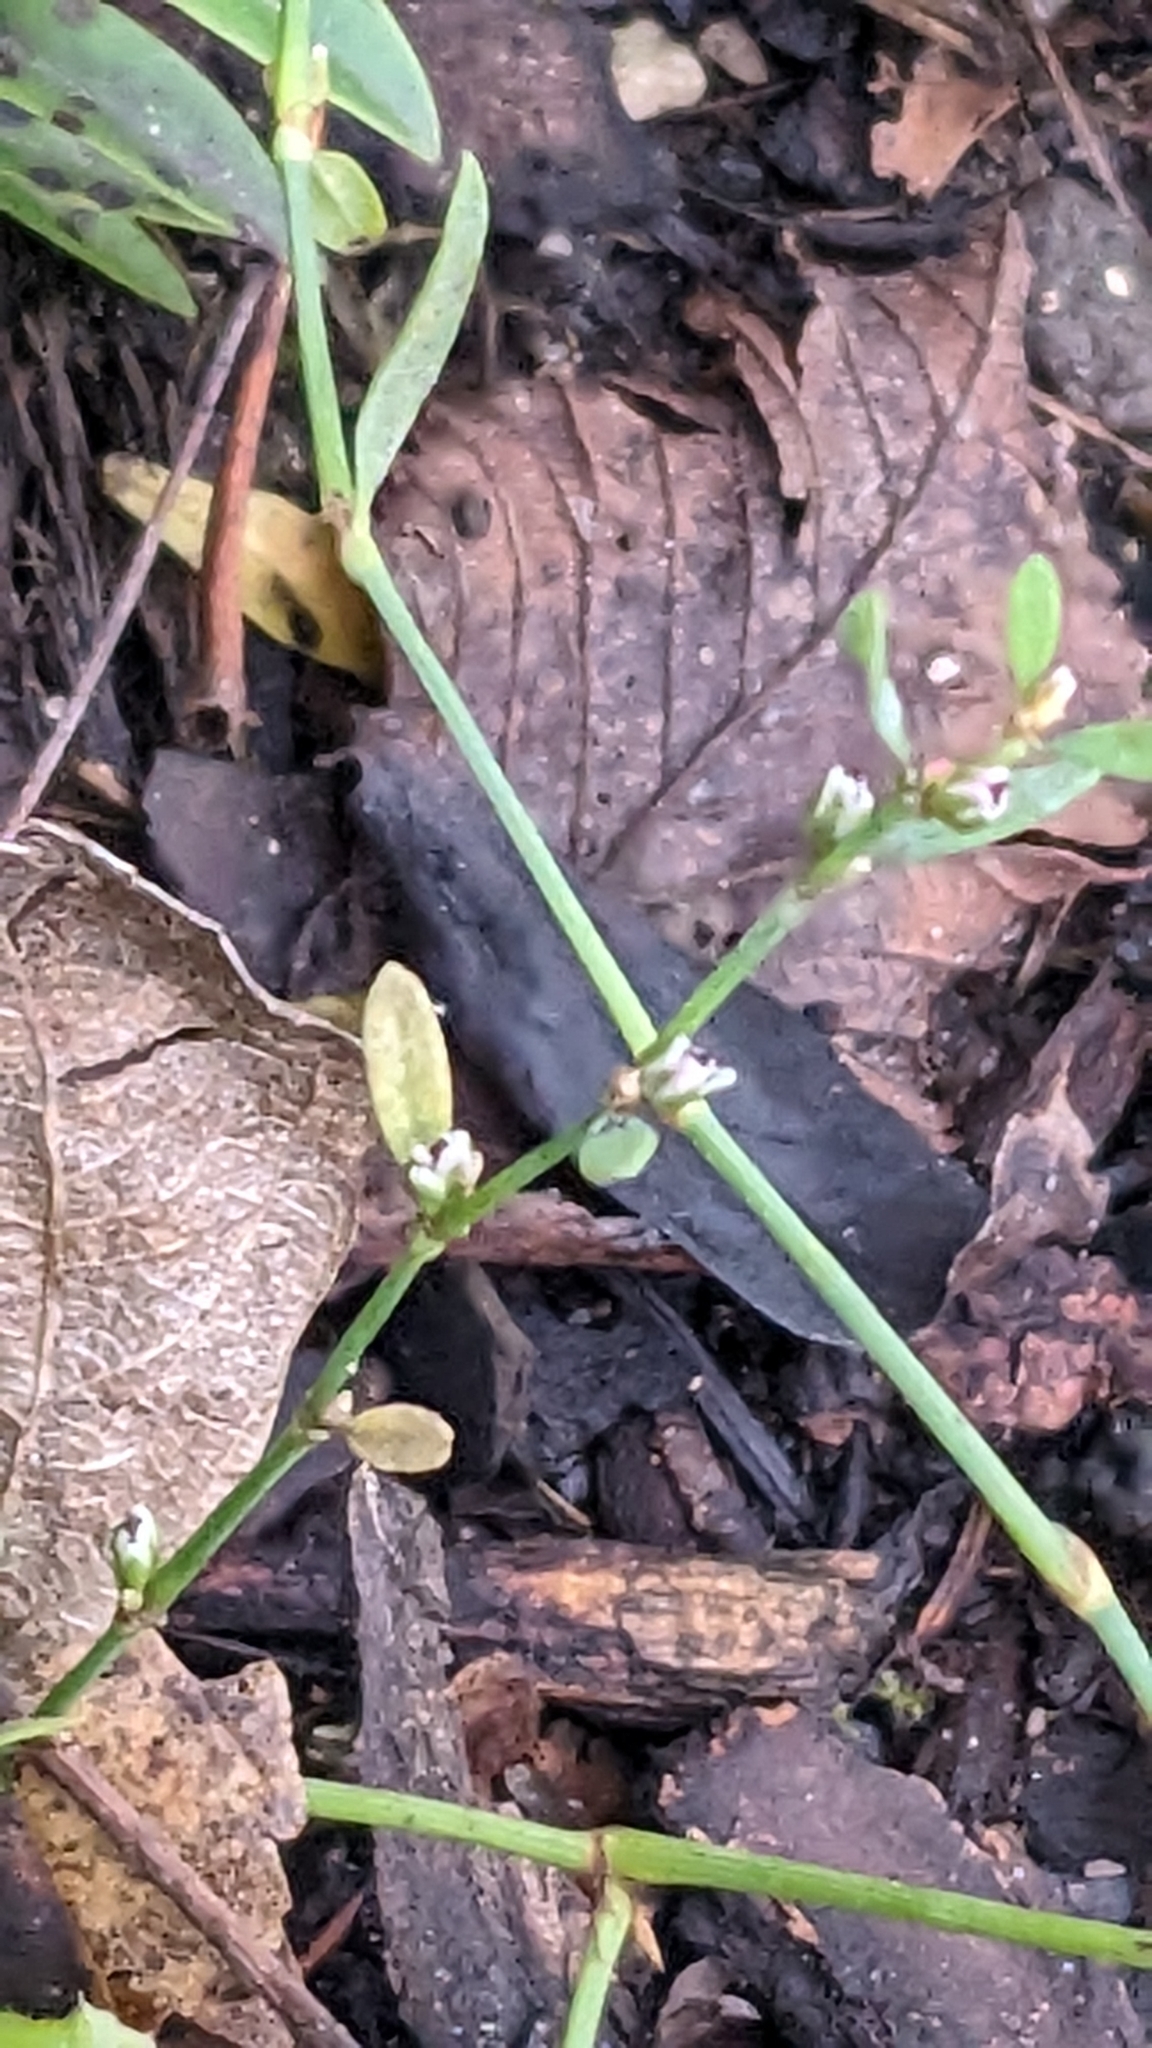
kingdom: Plantae
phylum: Tracheophyta
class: Magnoliopsida
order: Caryophyllales
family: Polygonaceae
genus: Polygonum
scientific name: Polygonum aviculare
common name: Prostrate knotweed
